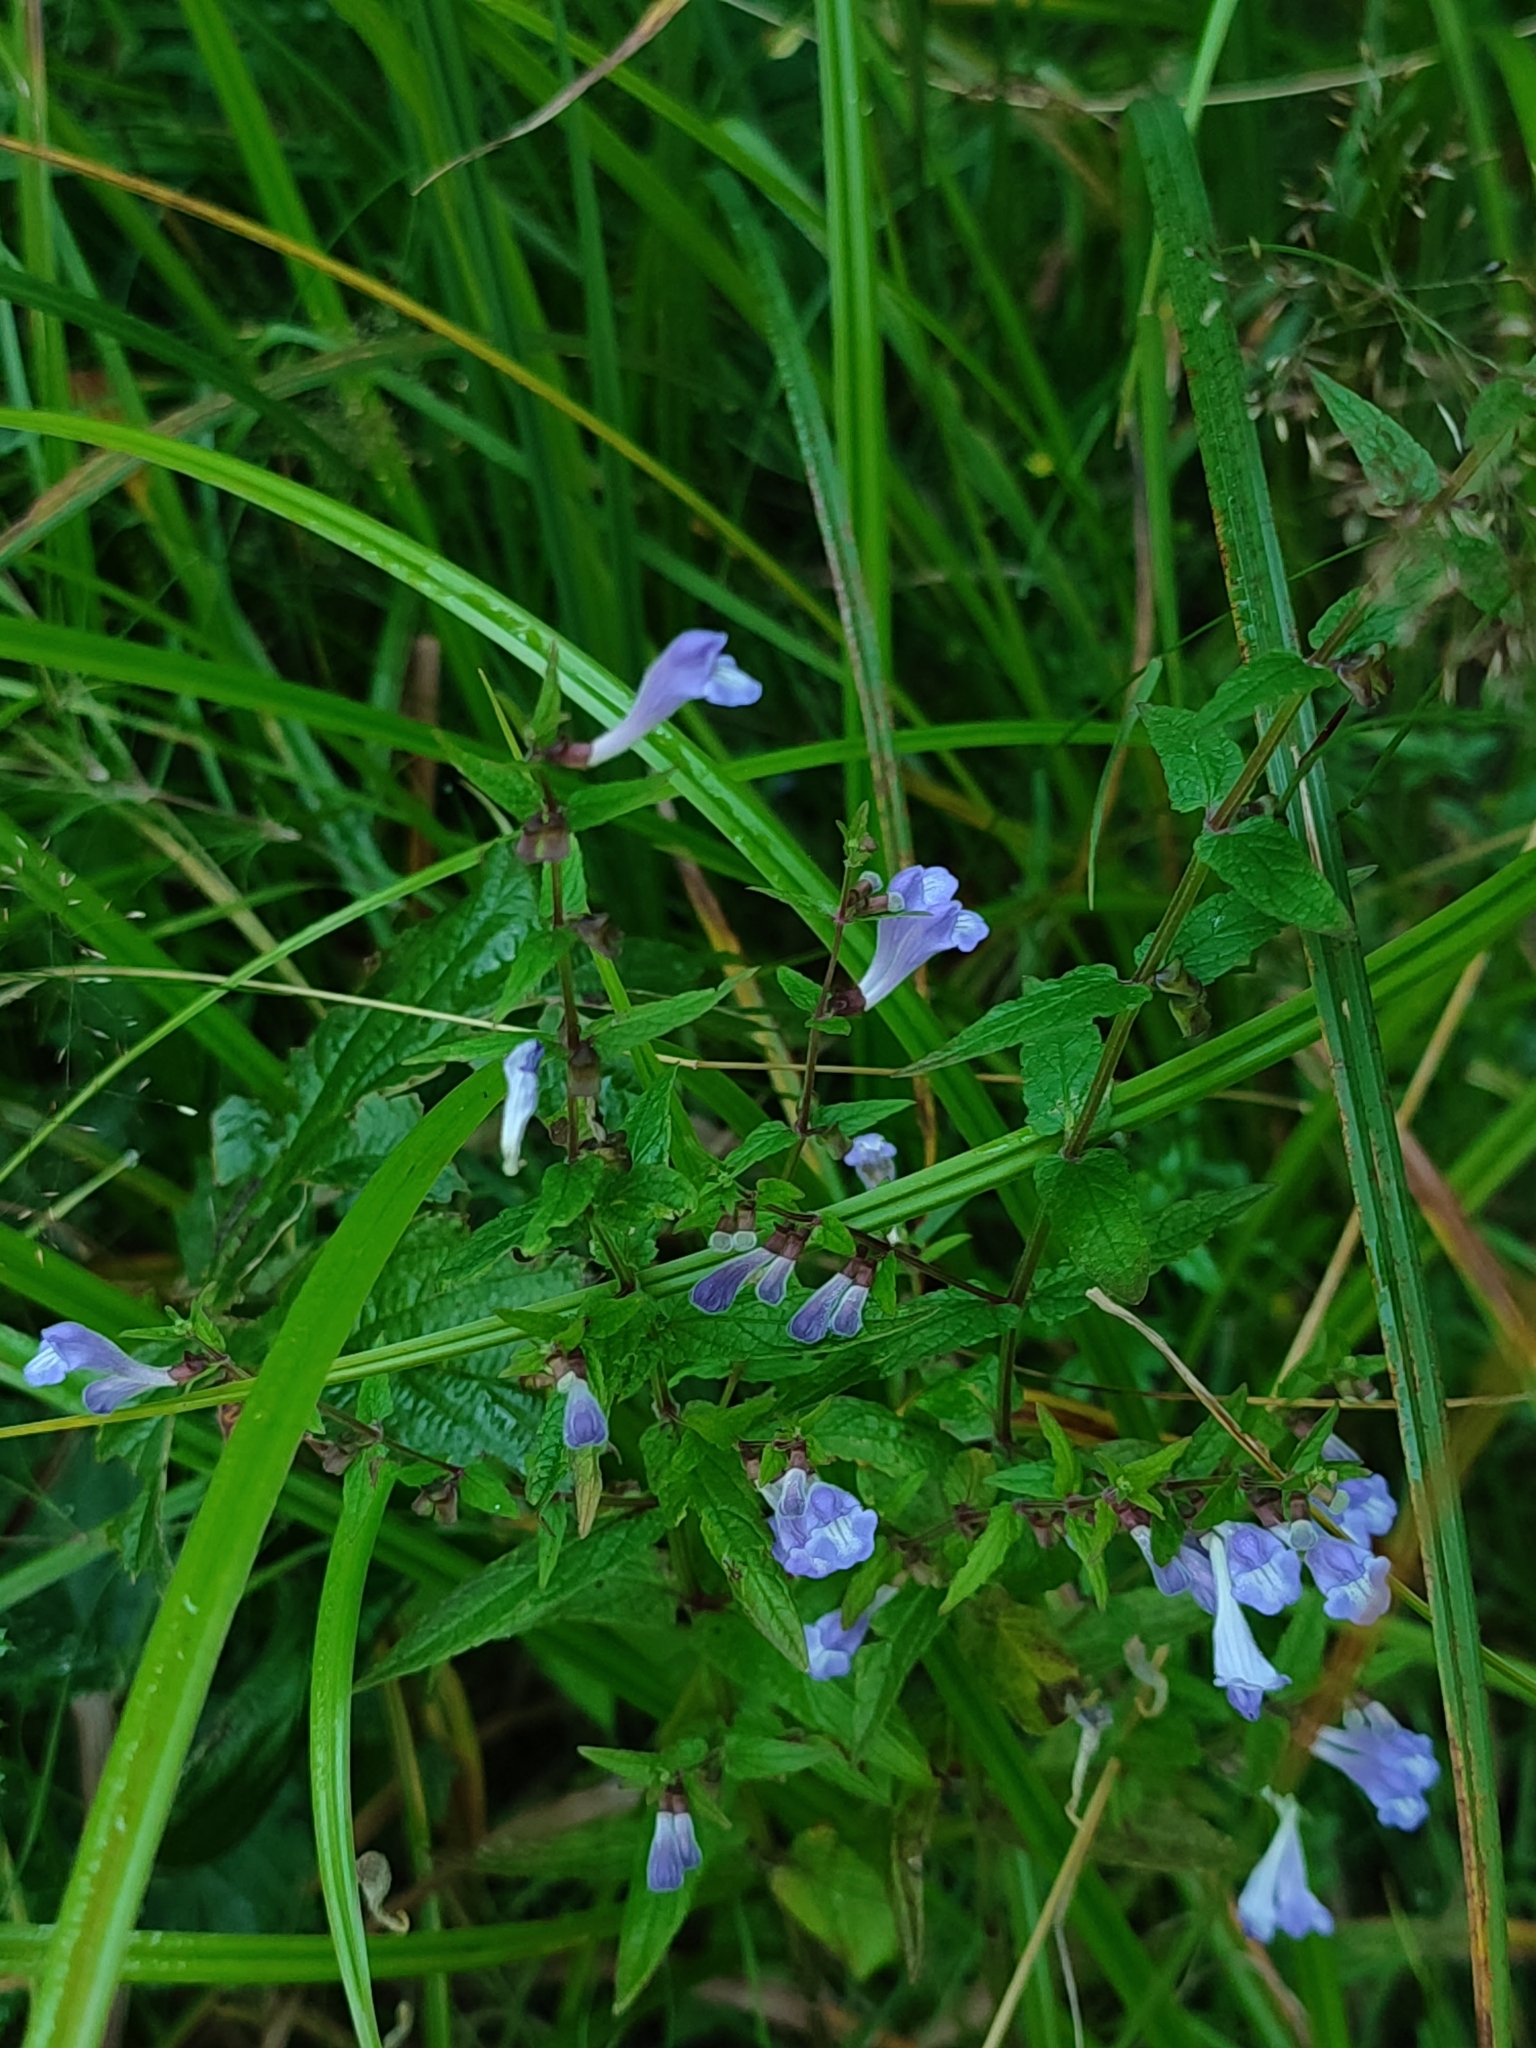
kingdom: Plantae
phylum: Tracheophyta
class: Magnoliopsida
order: Lamiales
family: Lamiaceae
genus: Scutellaria
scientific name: Scutellaria galericulata
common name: Skullcap
